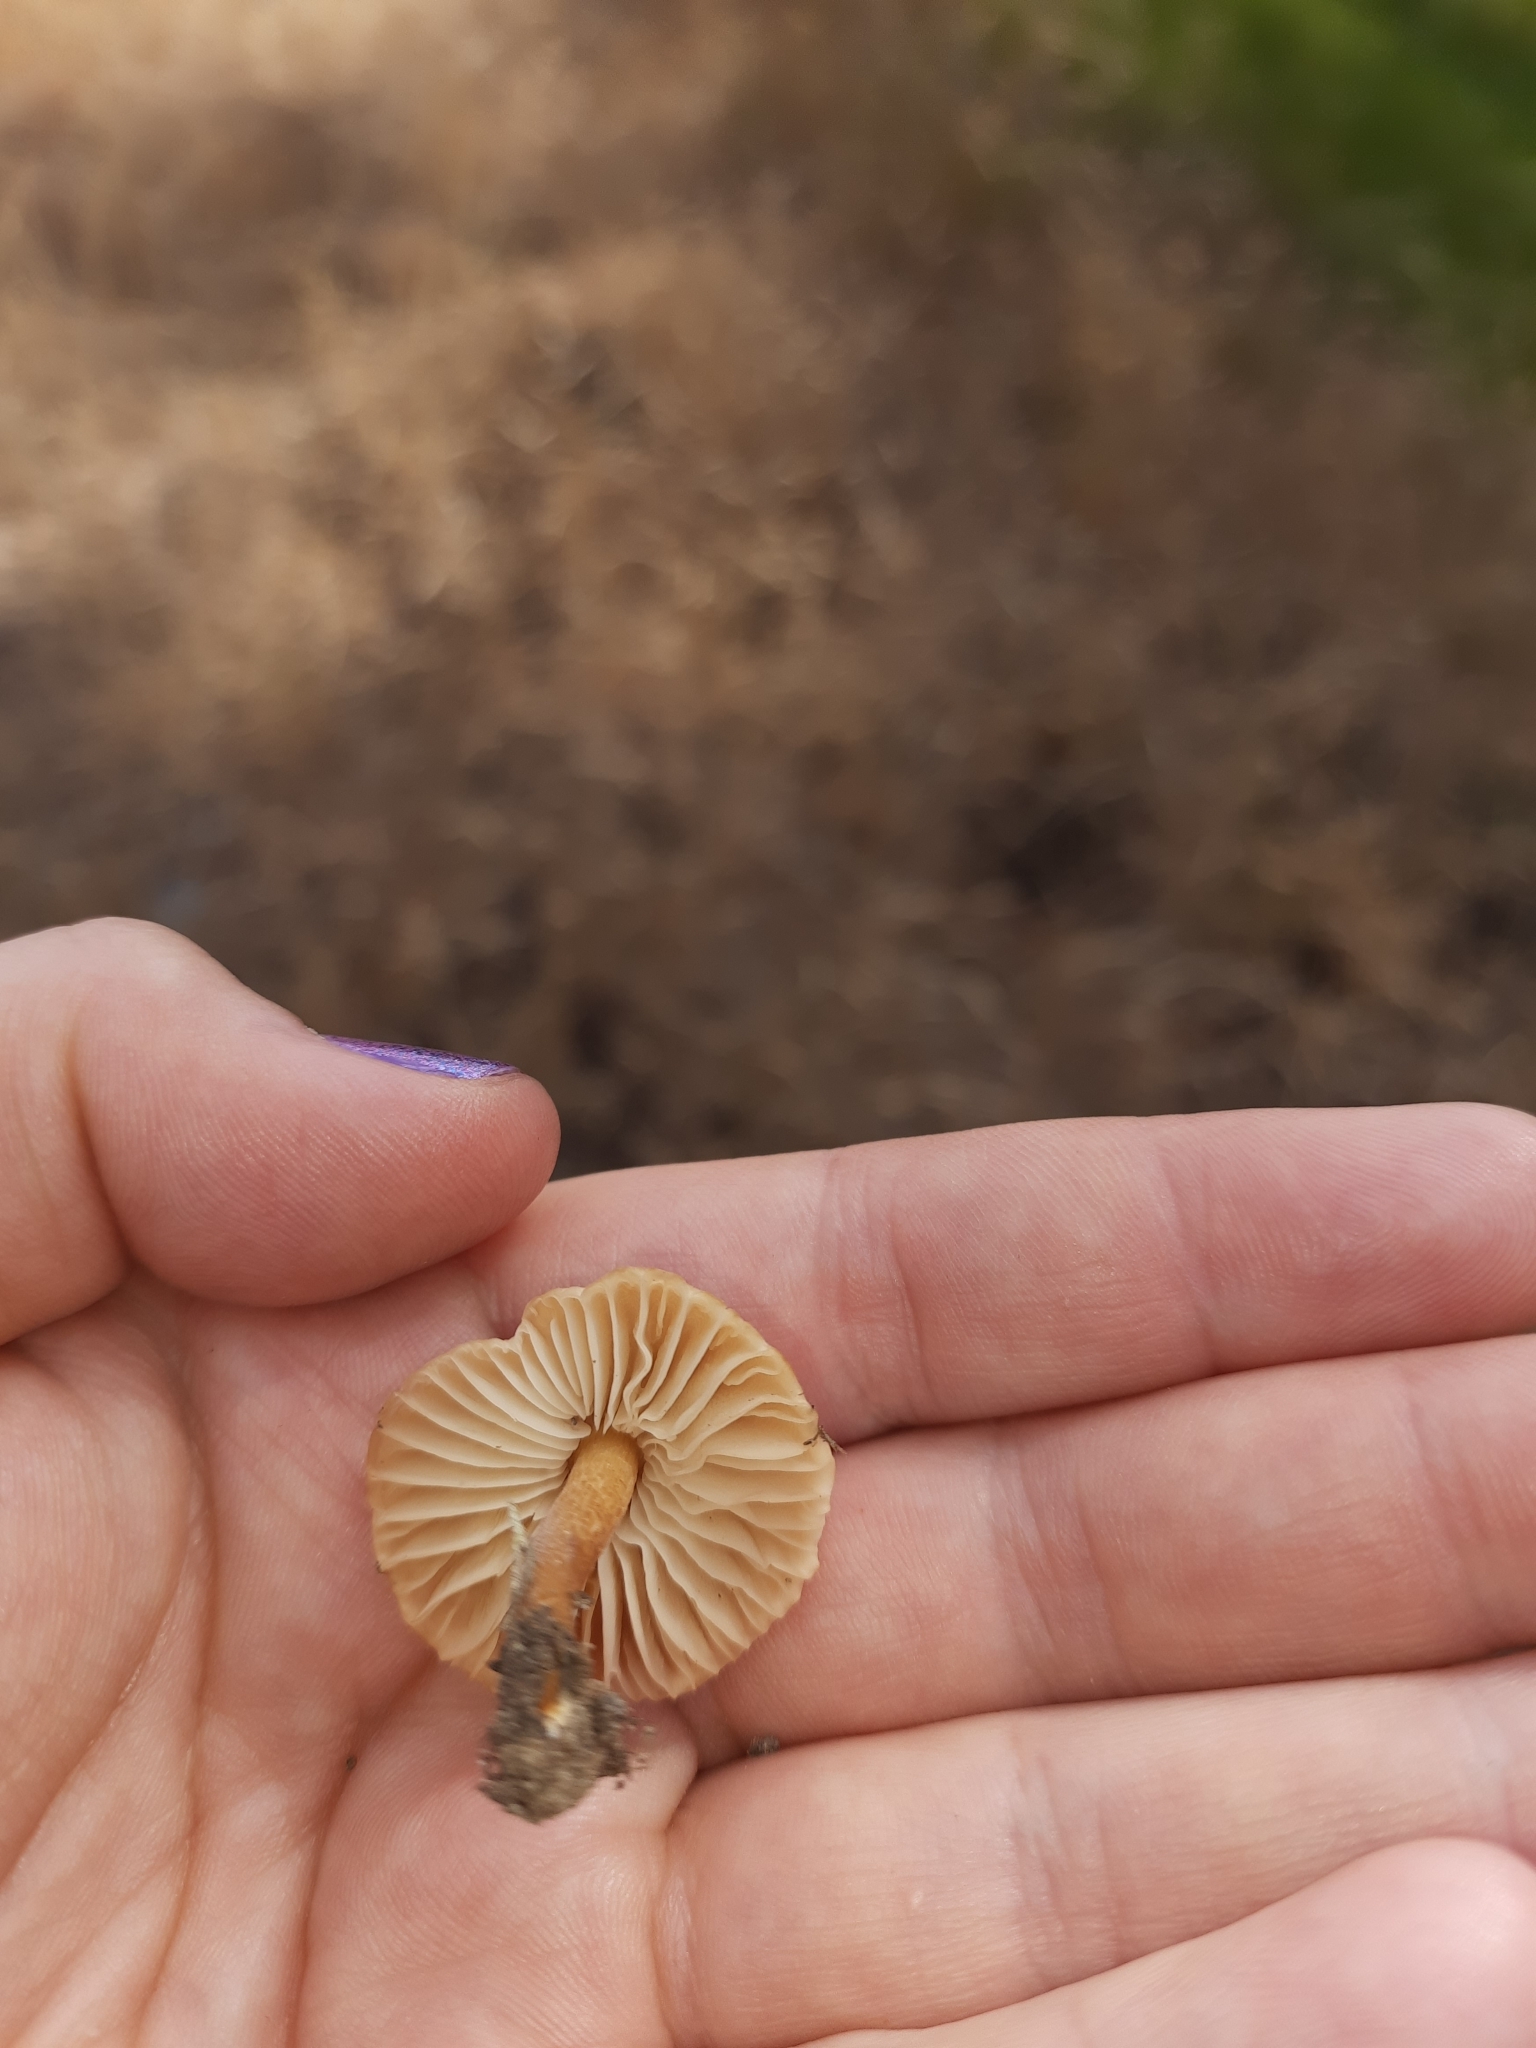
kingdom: Fungi
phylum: Basidiomycota
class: Agaricomycetes
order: Agaricales
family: Marasmiaceae
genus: Marasmius
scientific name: Marasmius oreades
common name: Fairy ring champignon
